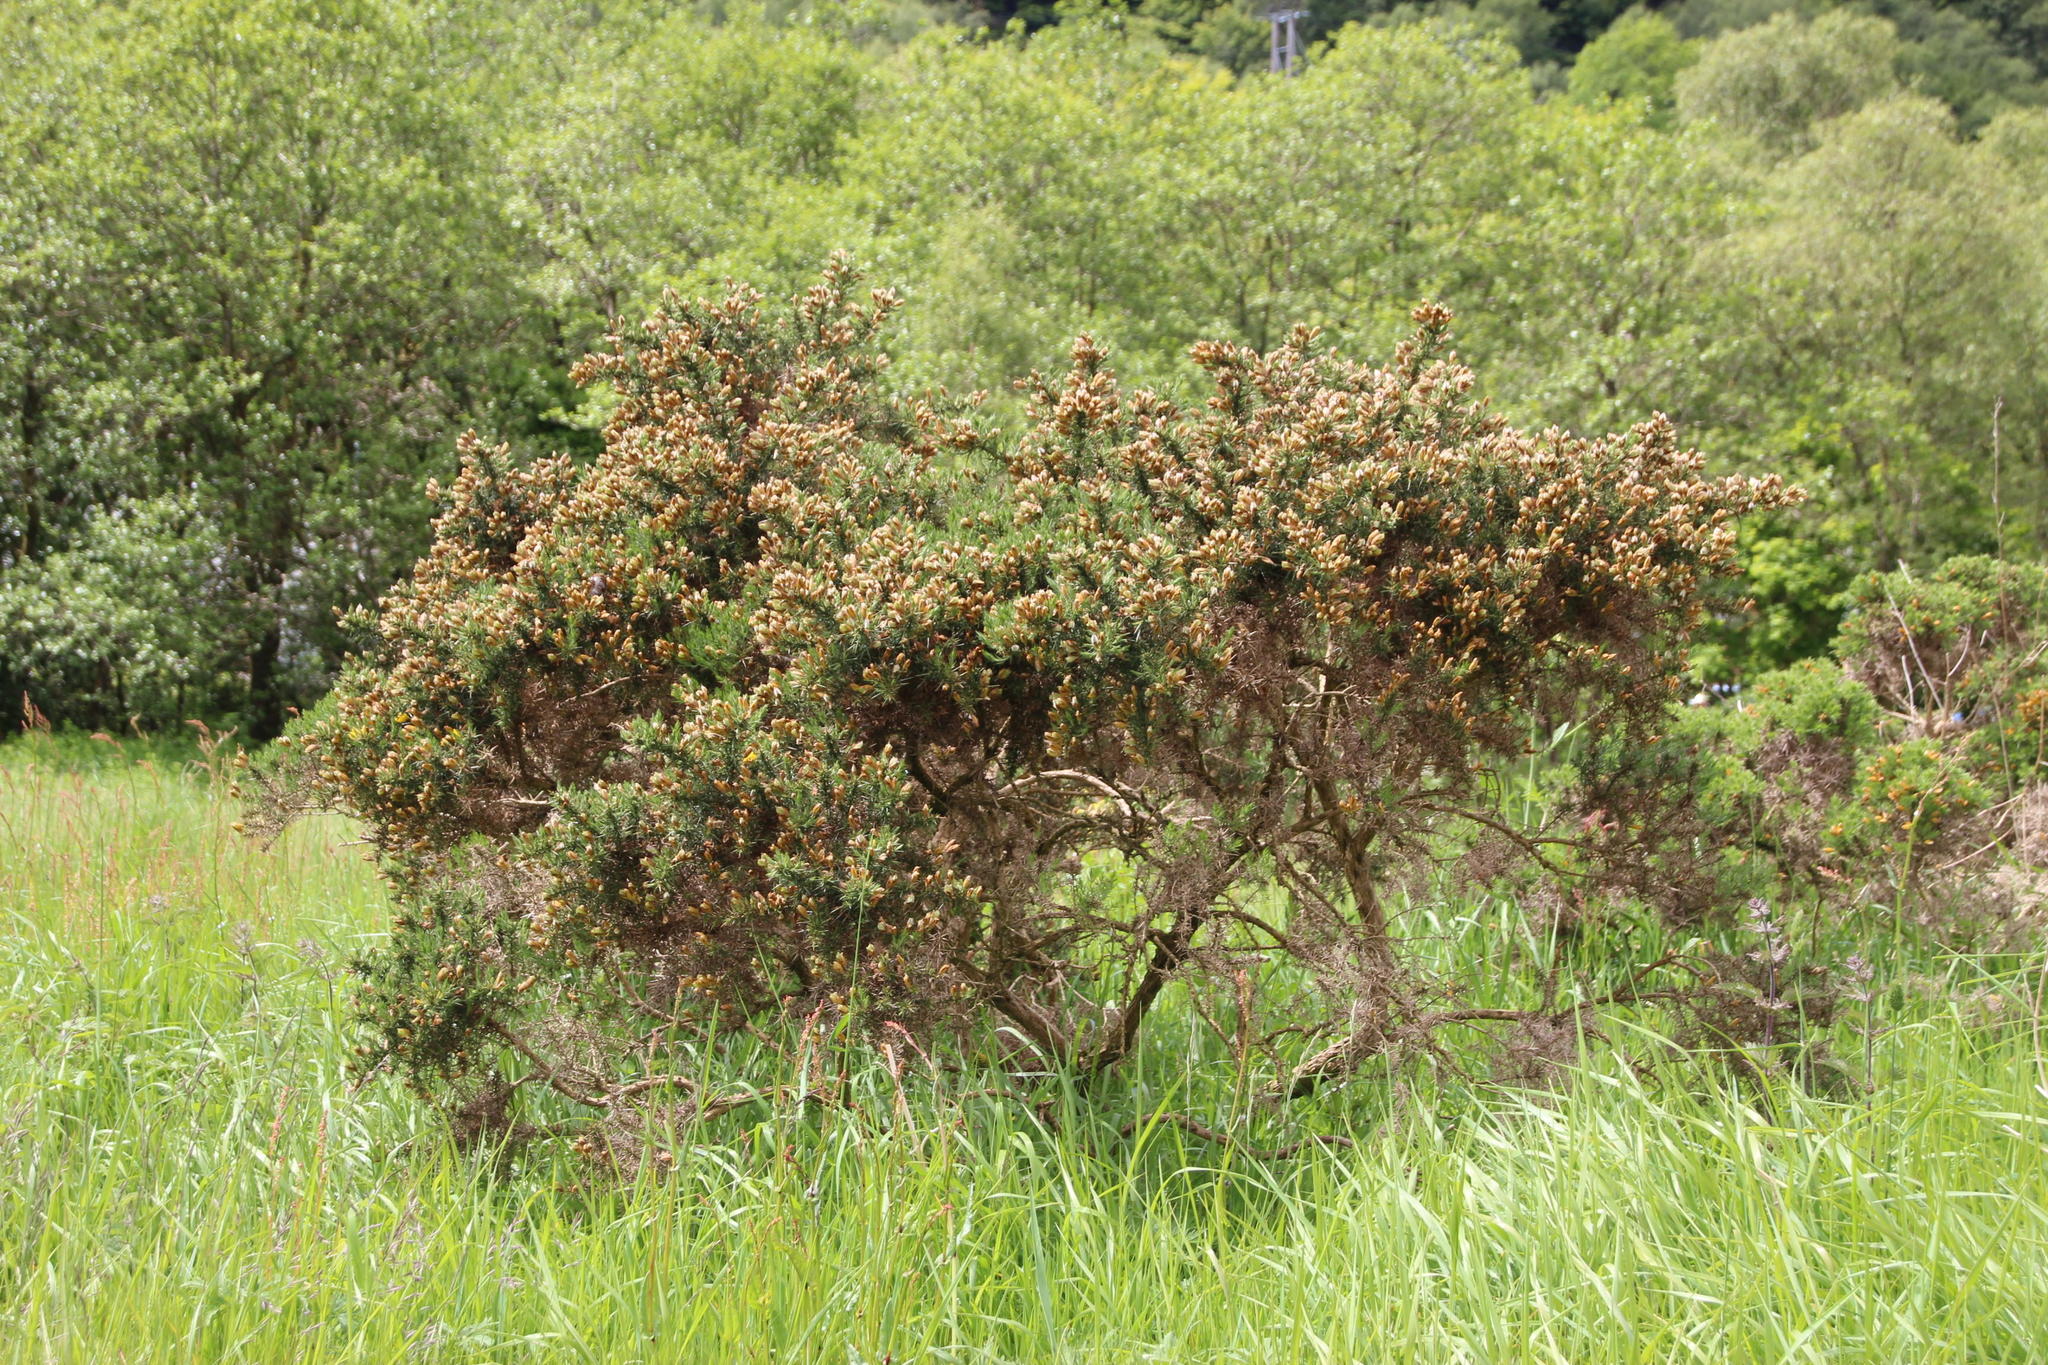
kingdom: Plantae
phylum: Tracheophyta
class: Magnoliopsida
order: Fabales
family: Fabaceae
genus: Ulex
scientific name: Ulex europaeus
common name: Common gorse
